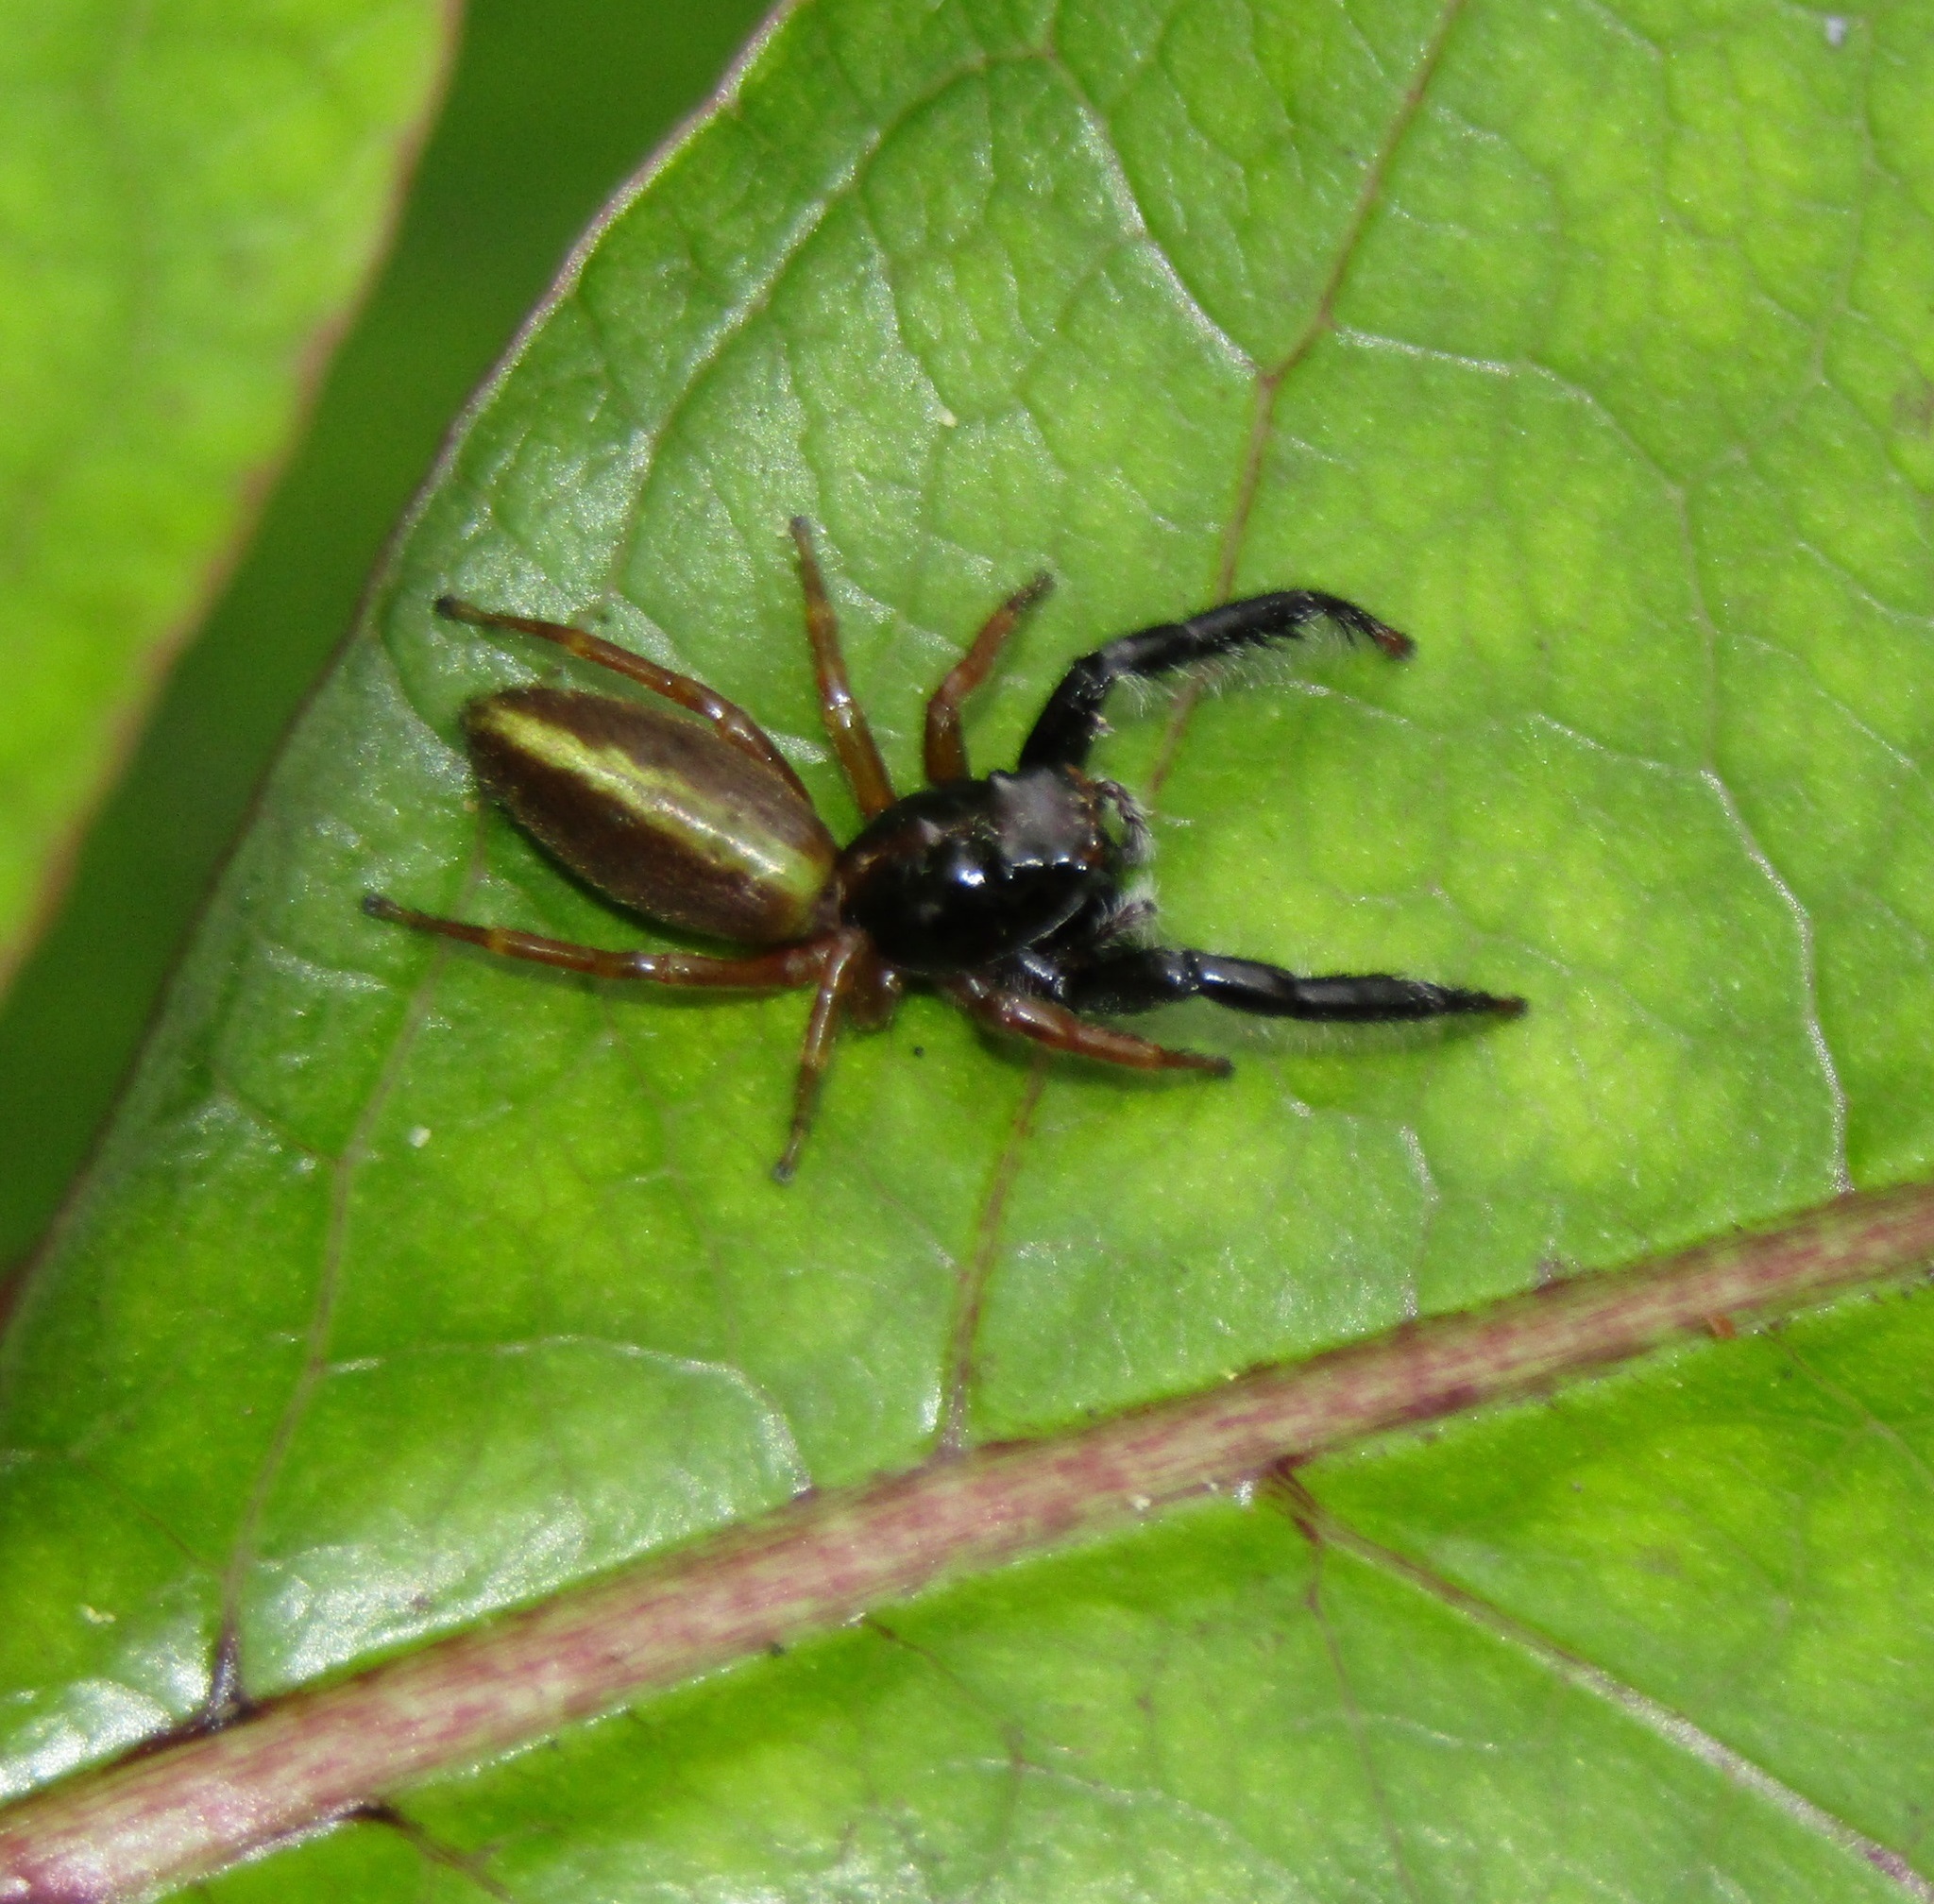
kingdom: Animalia
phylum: Arthropoda
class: Arachnida
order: Araneae
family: Salticidae
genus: Trite
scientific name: Trite planiceps
